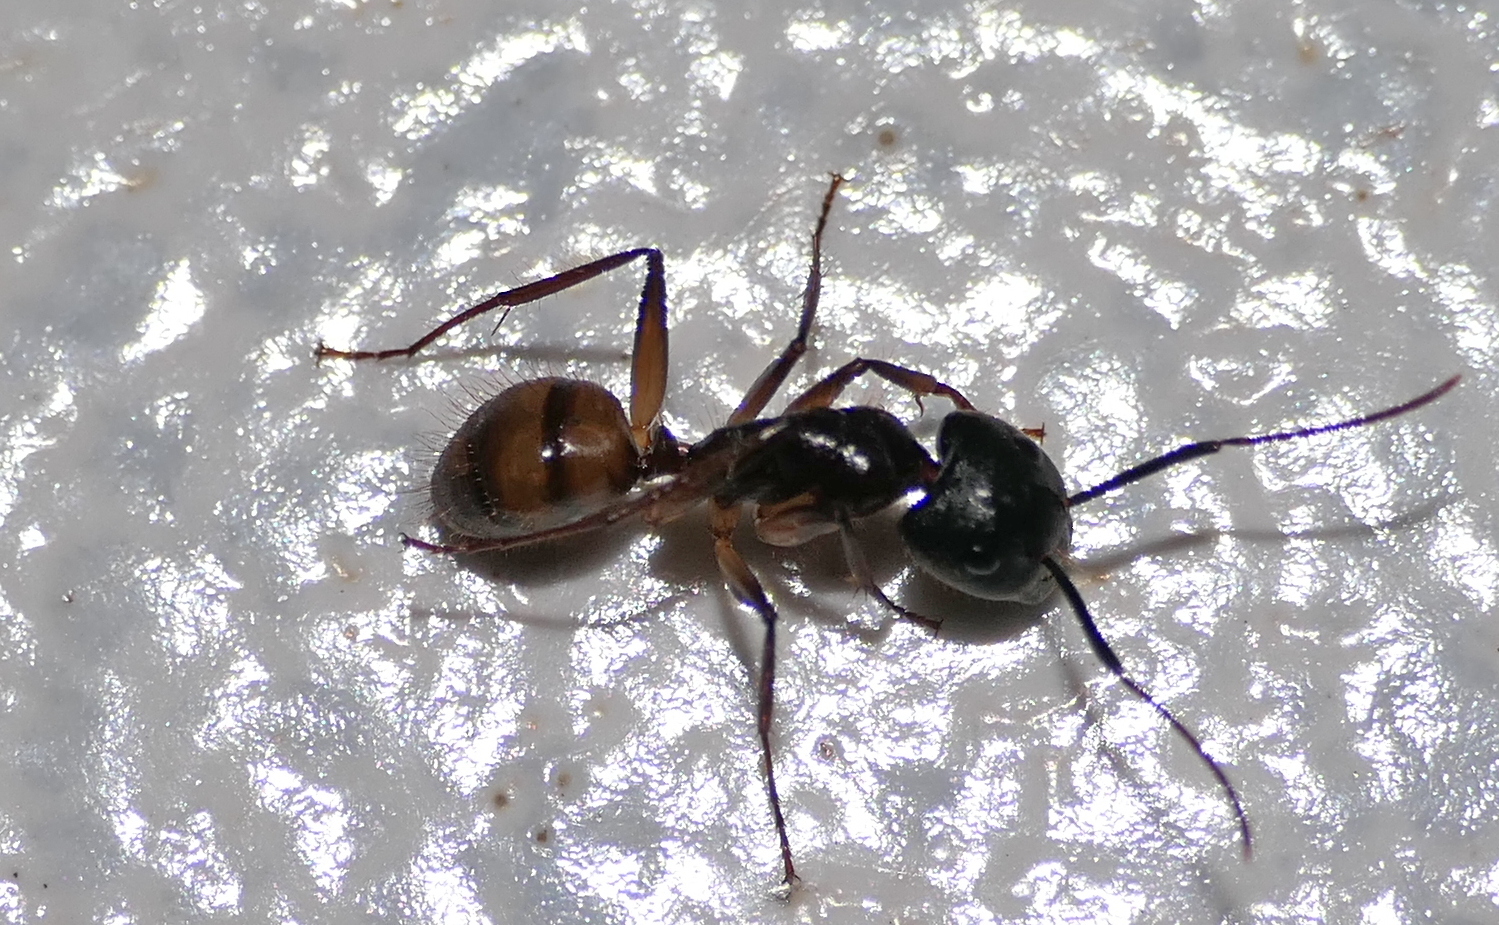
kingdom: Animalia
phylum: Arthropoda
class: Insecta
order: Hymenoptera
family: Formicidae
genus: Camponotus
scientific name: Camponotus atriceps
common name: Florida carpenter ant
